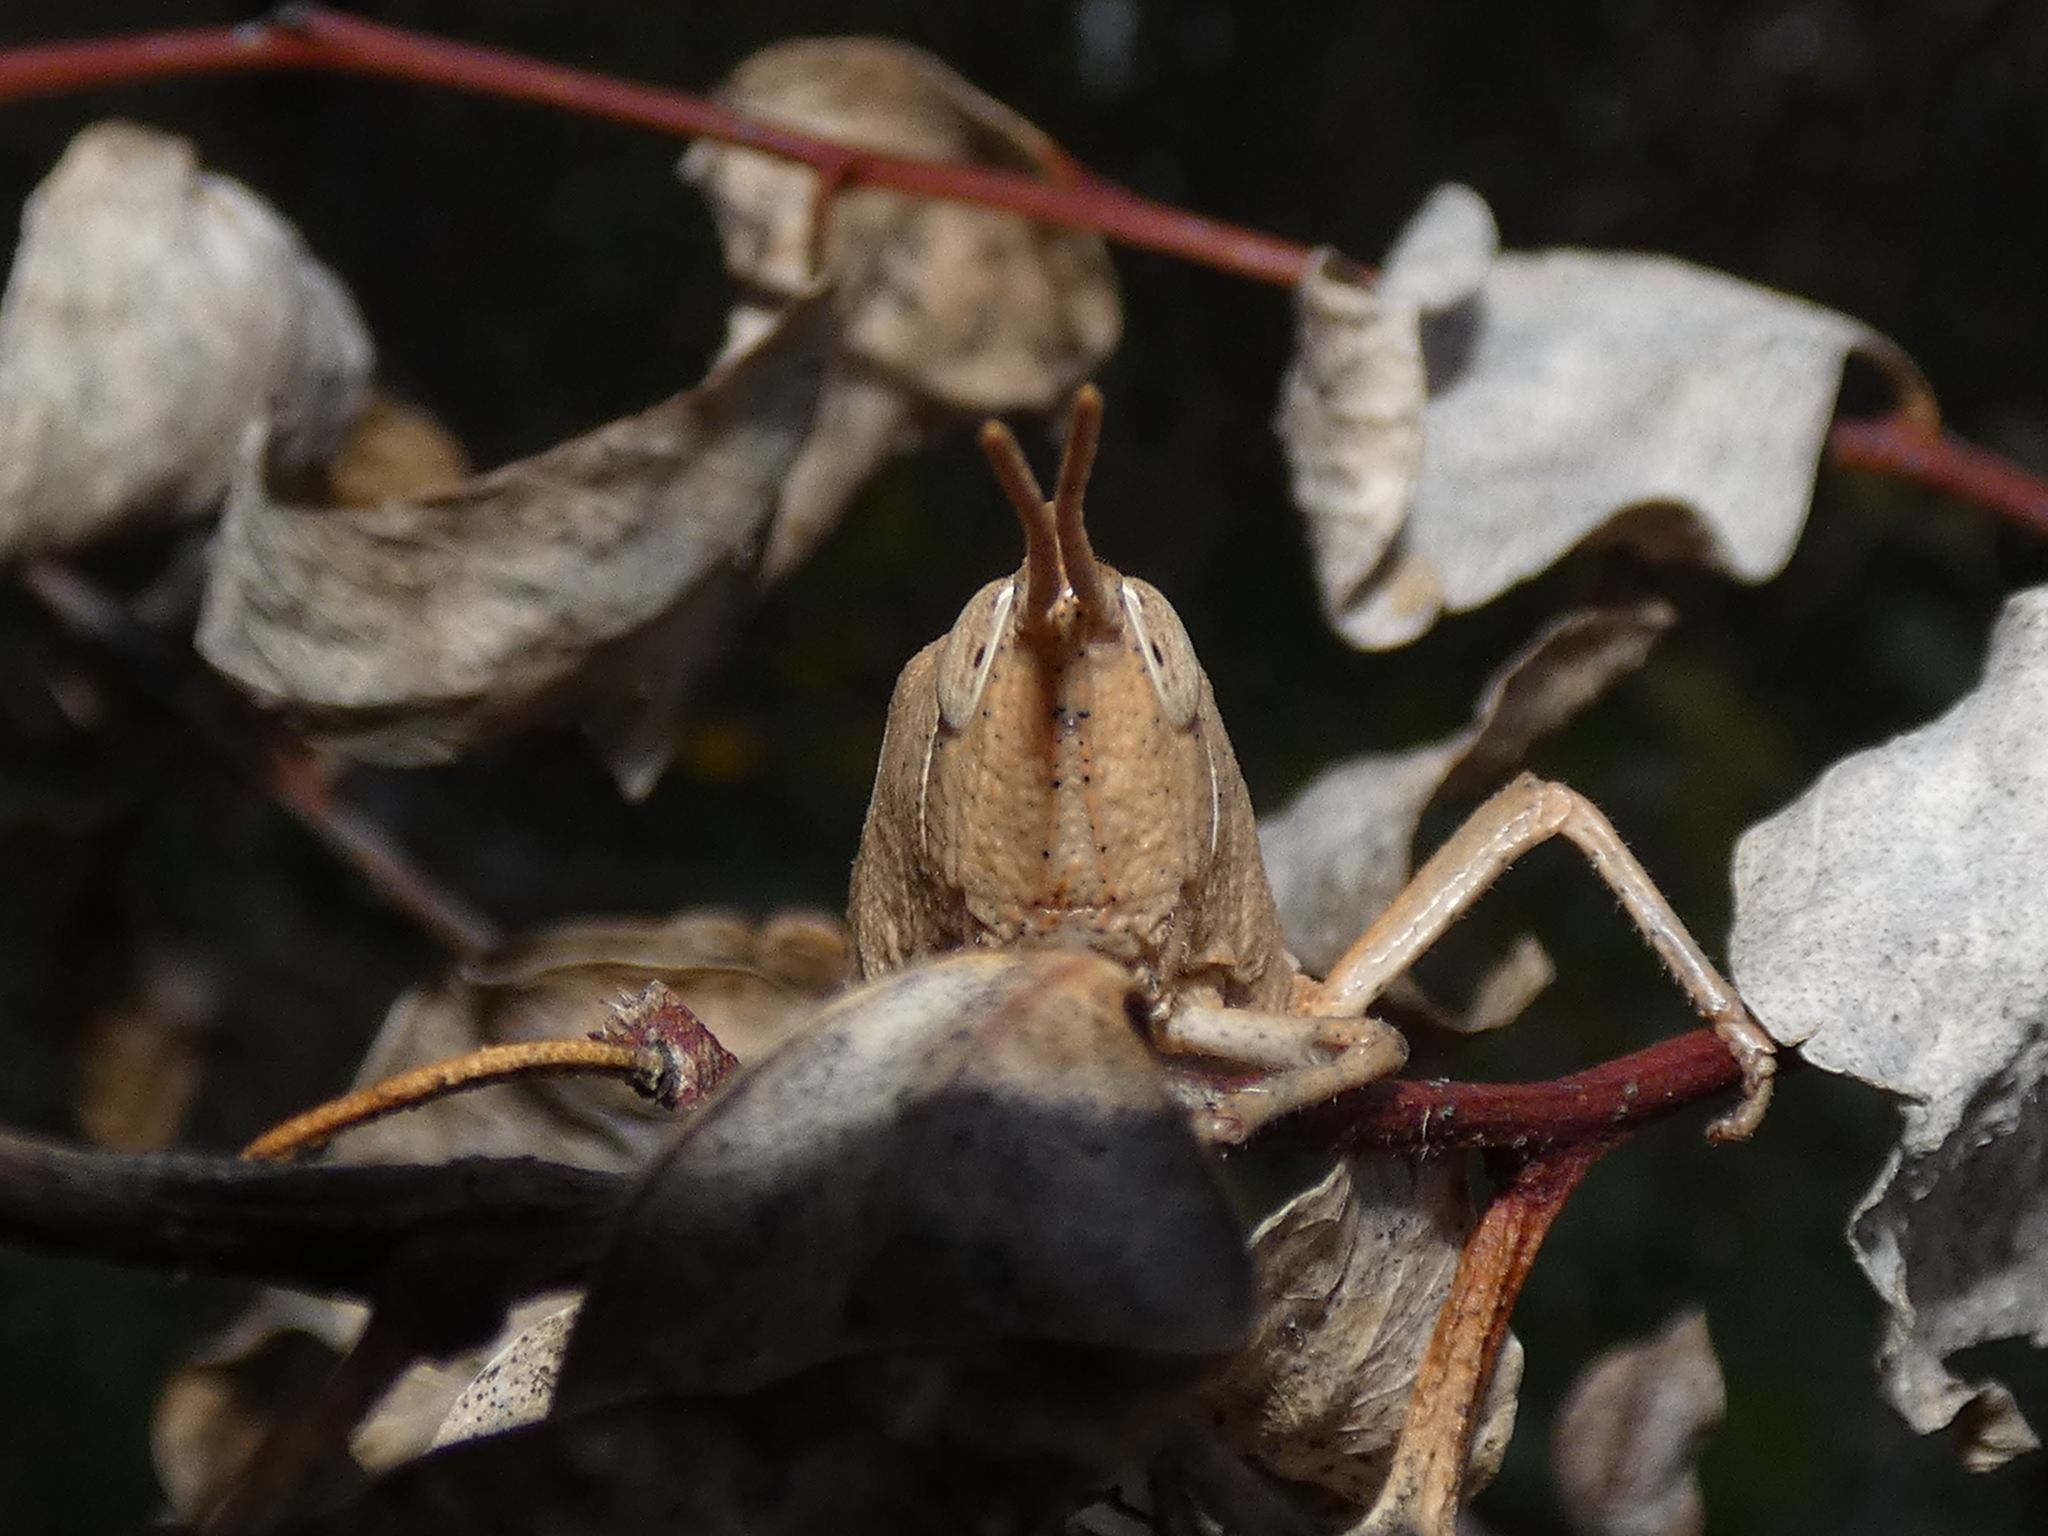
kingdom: Animalia
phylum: Arthropoda
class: Insecta
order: Orthoptera
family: Acrididae
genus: Goniaea
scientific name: Goniaea australasiae
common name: Gumleaf grasshopper
